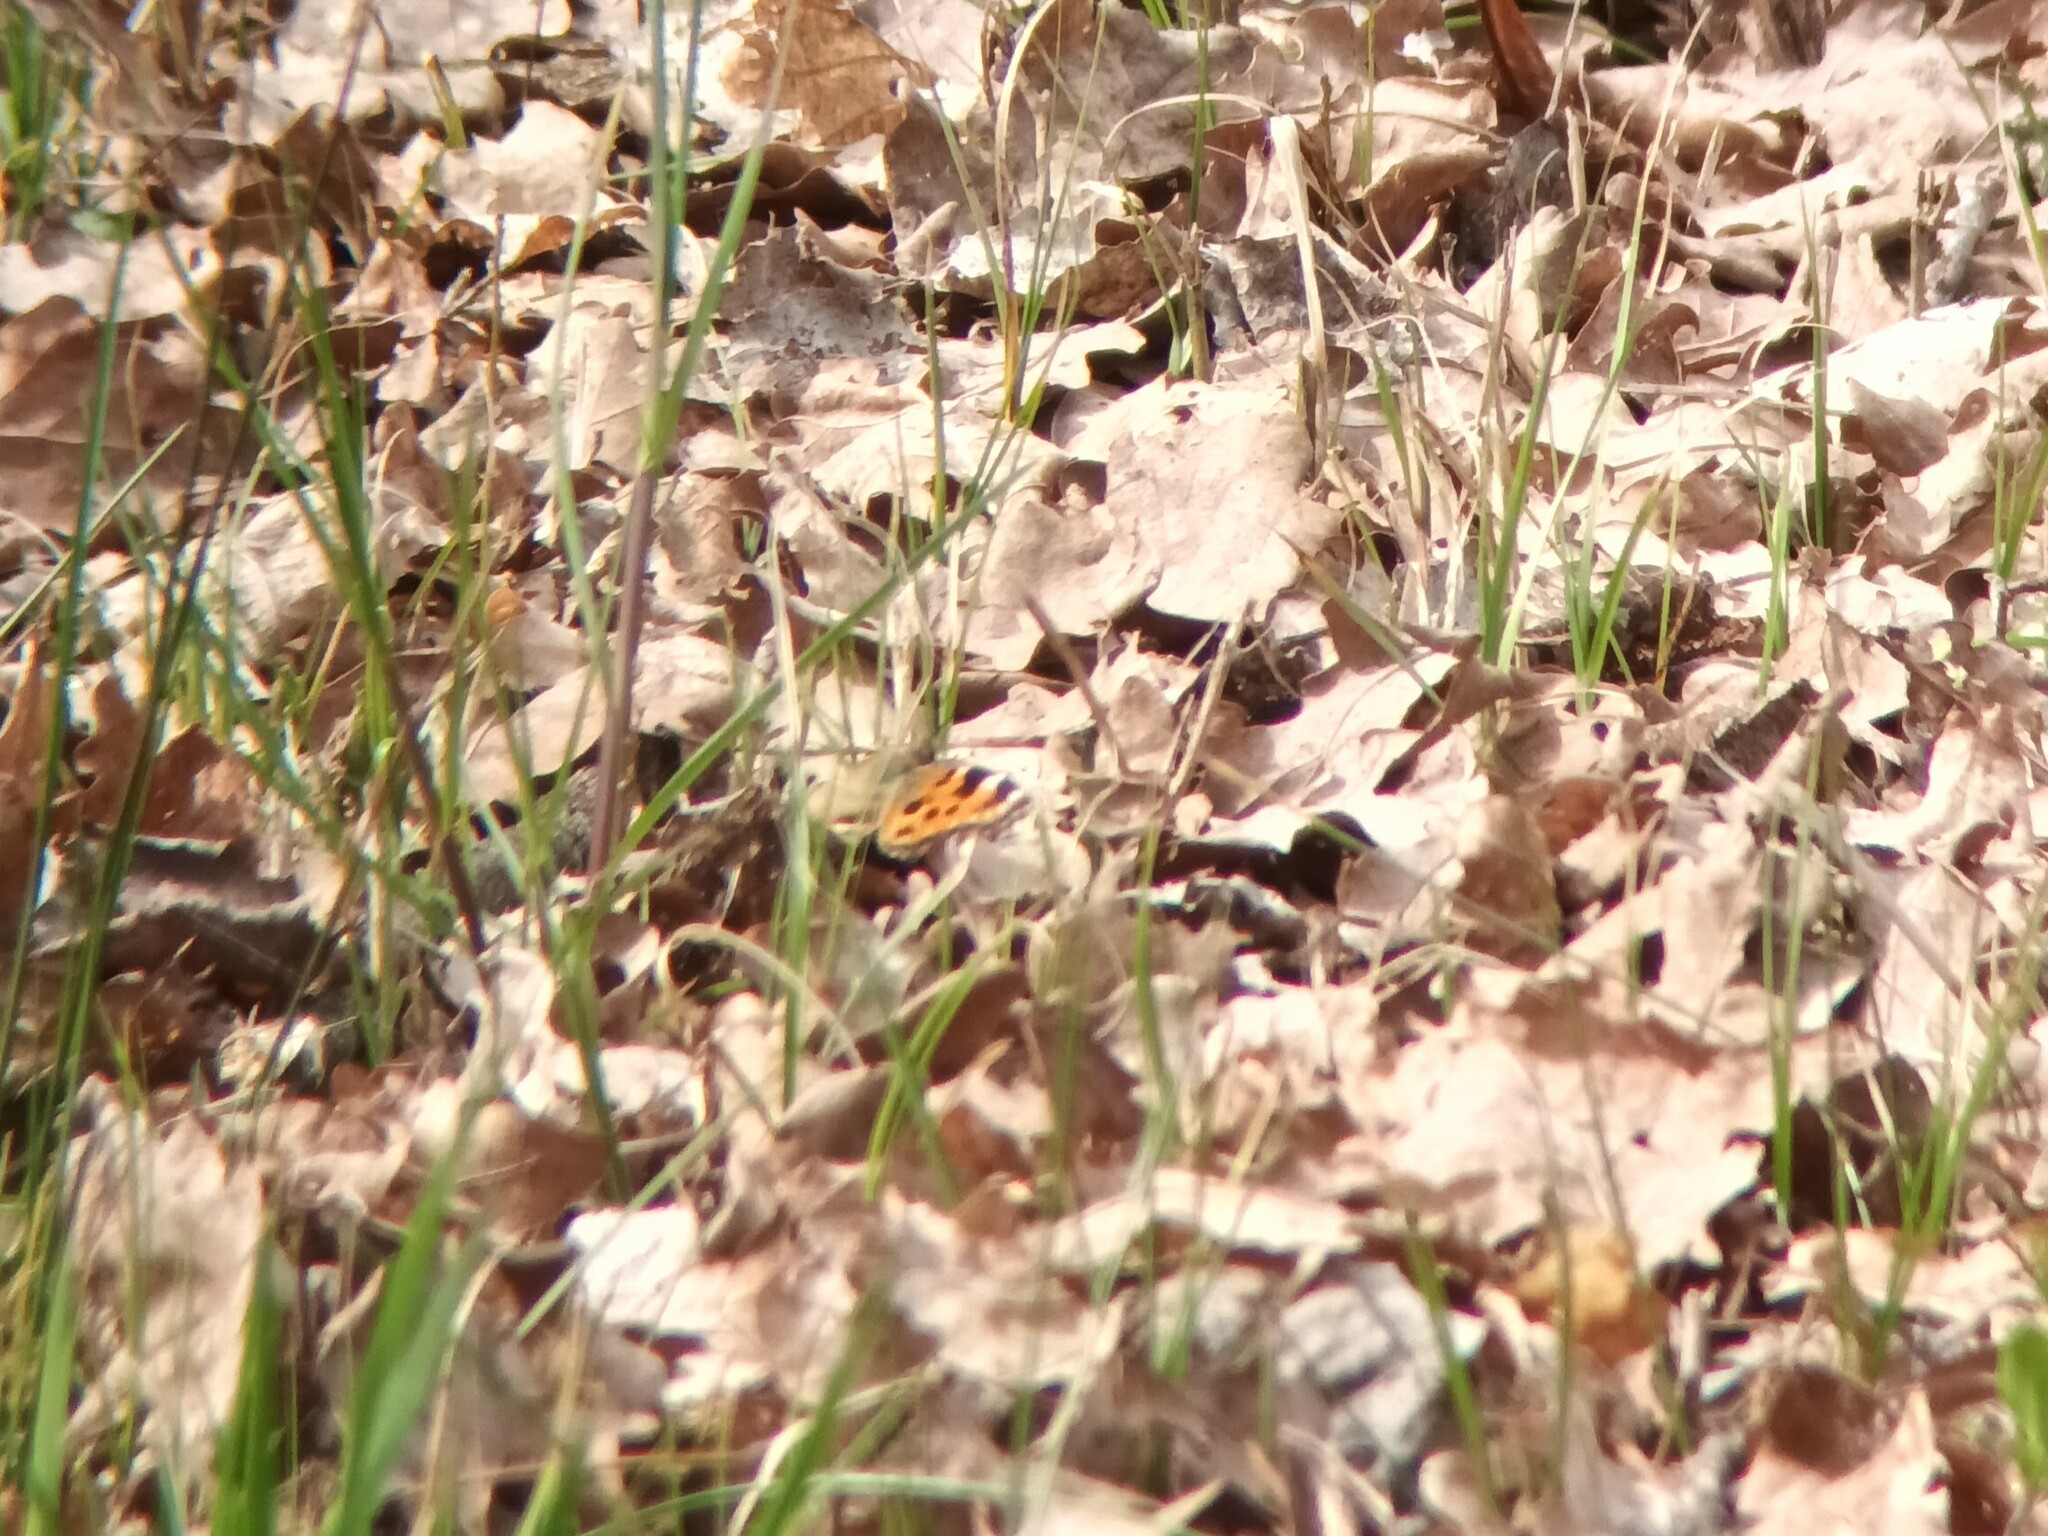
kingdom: Animalia
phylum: Arthropoda
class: Insecta
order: Lepidoptera
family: Nymphalidae
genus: Nymphalis
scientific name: Nymphalis polychloros
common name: Large tortoiseshell
